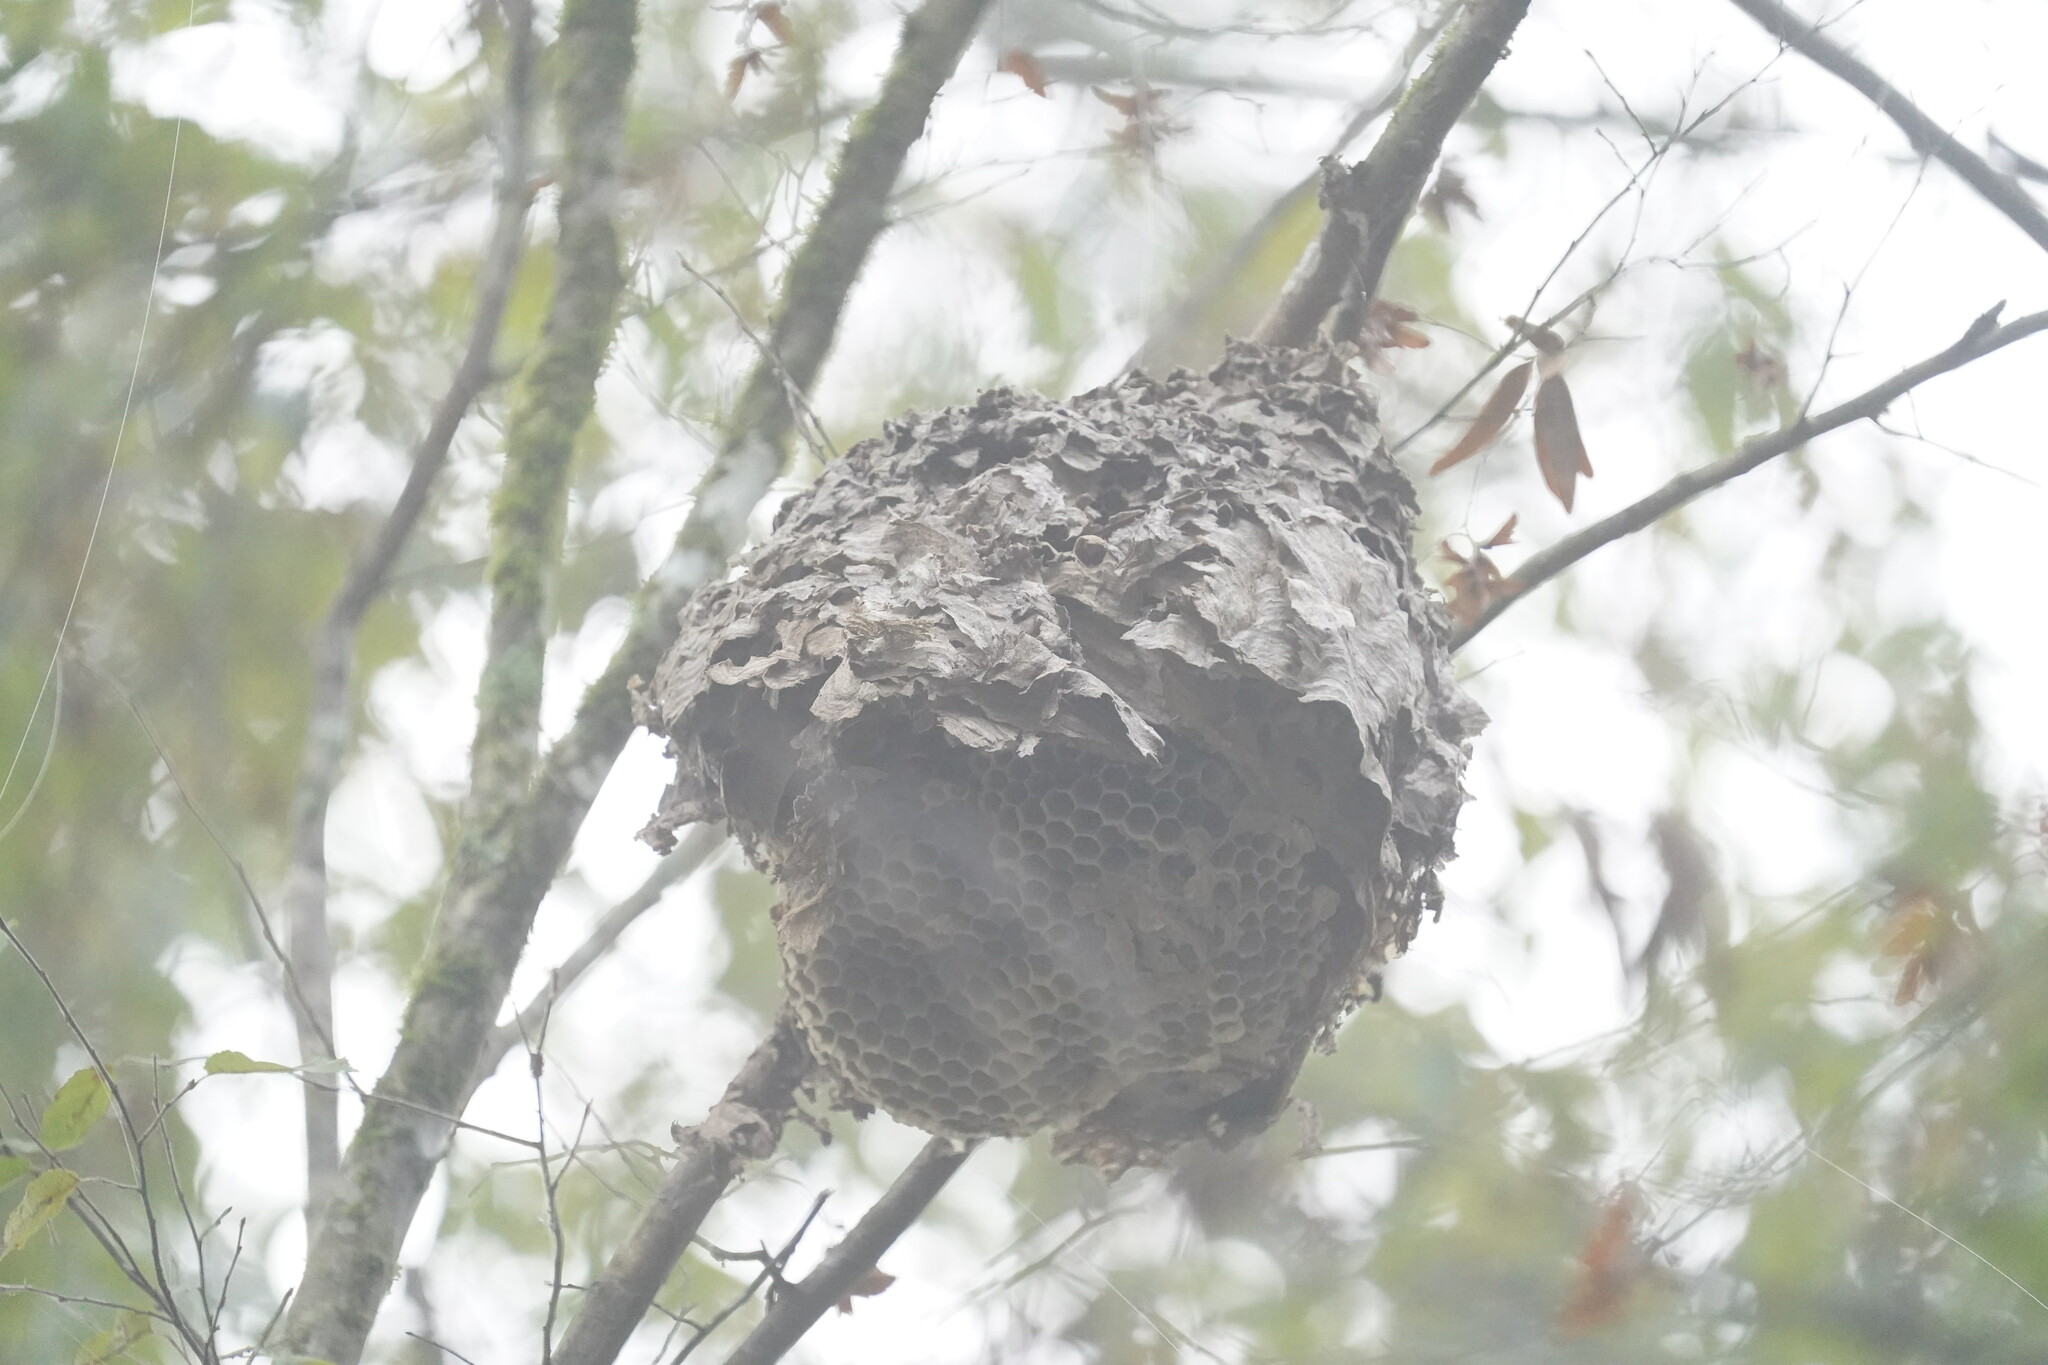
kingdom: Animalia
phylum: Arthropoda
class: Insecta
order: Hymenoptera
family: Vespidae
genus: Dolichovespula
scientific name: Dolichovespula
